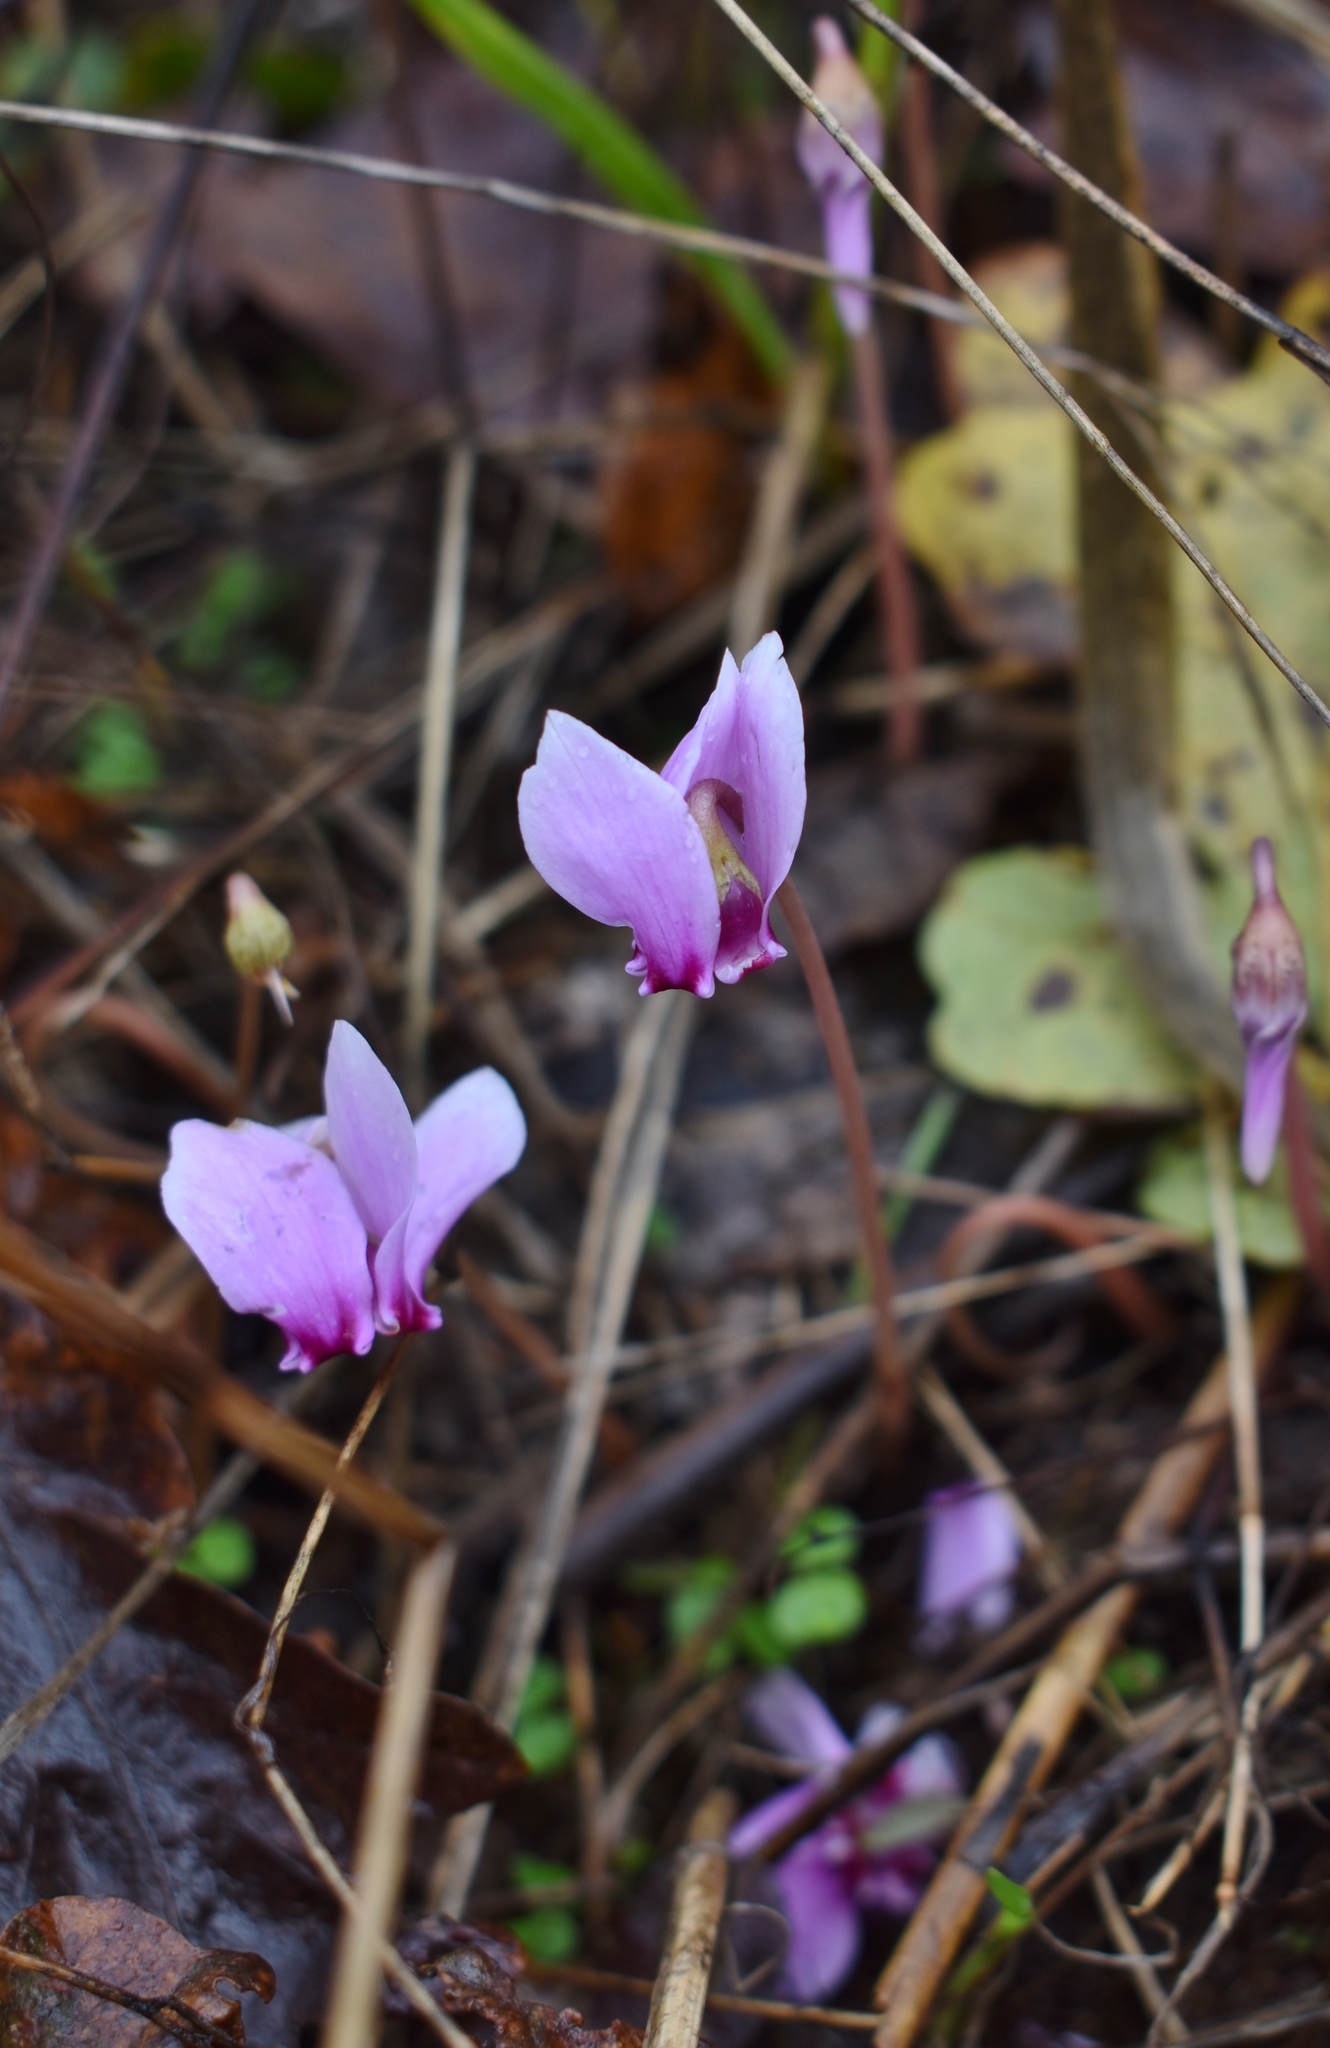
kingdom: Plantae
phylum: Tracheophyta
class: Magnoliopsida
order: Ericales
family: Primulaceae
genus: Cyclamen
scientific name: Cyclamen hederifolium
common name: Sowbread
